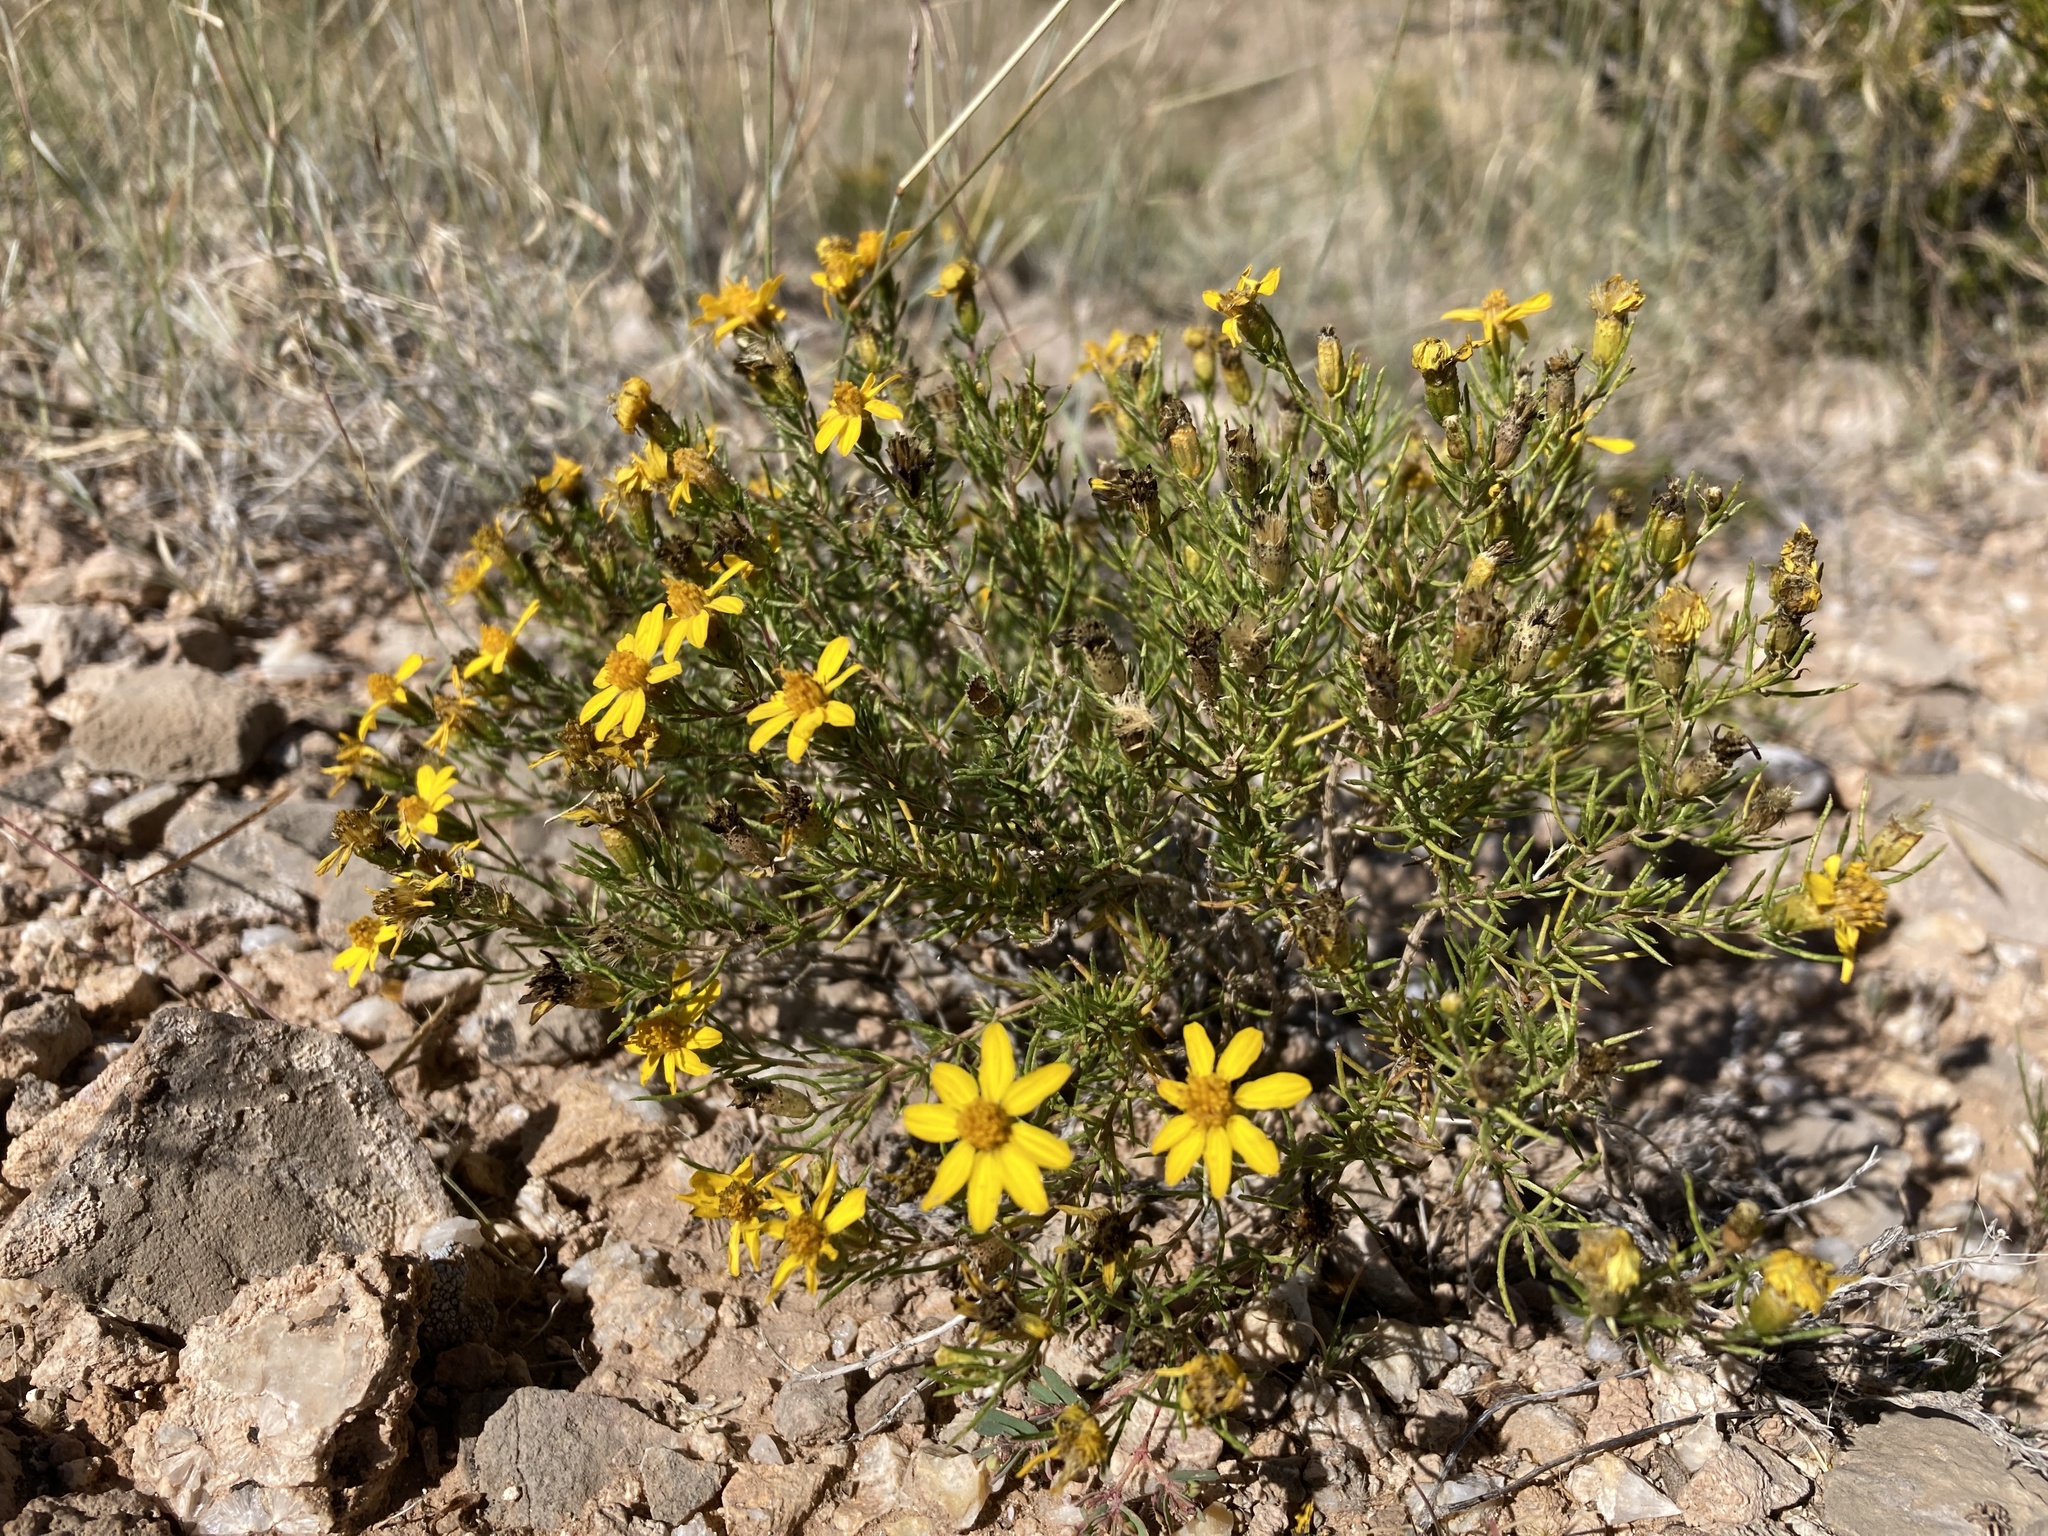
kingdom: Plantae
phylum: Tracheophyta
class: Magnoliopsida
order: Asterales
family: Asteraceae
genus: Thymophylla
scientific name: Thymophylla acerosa
